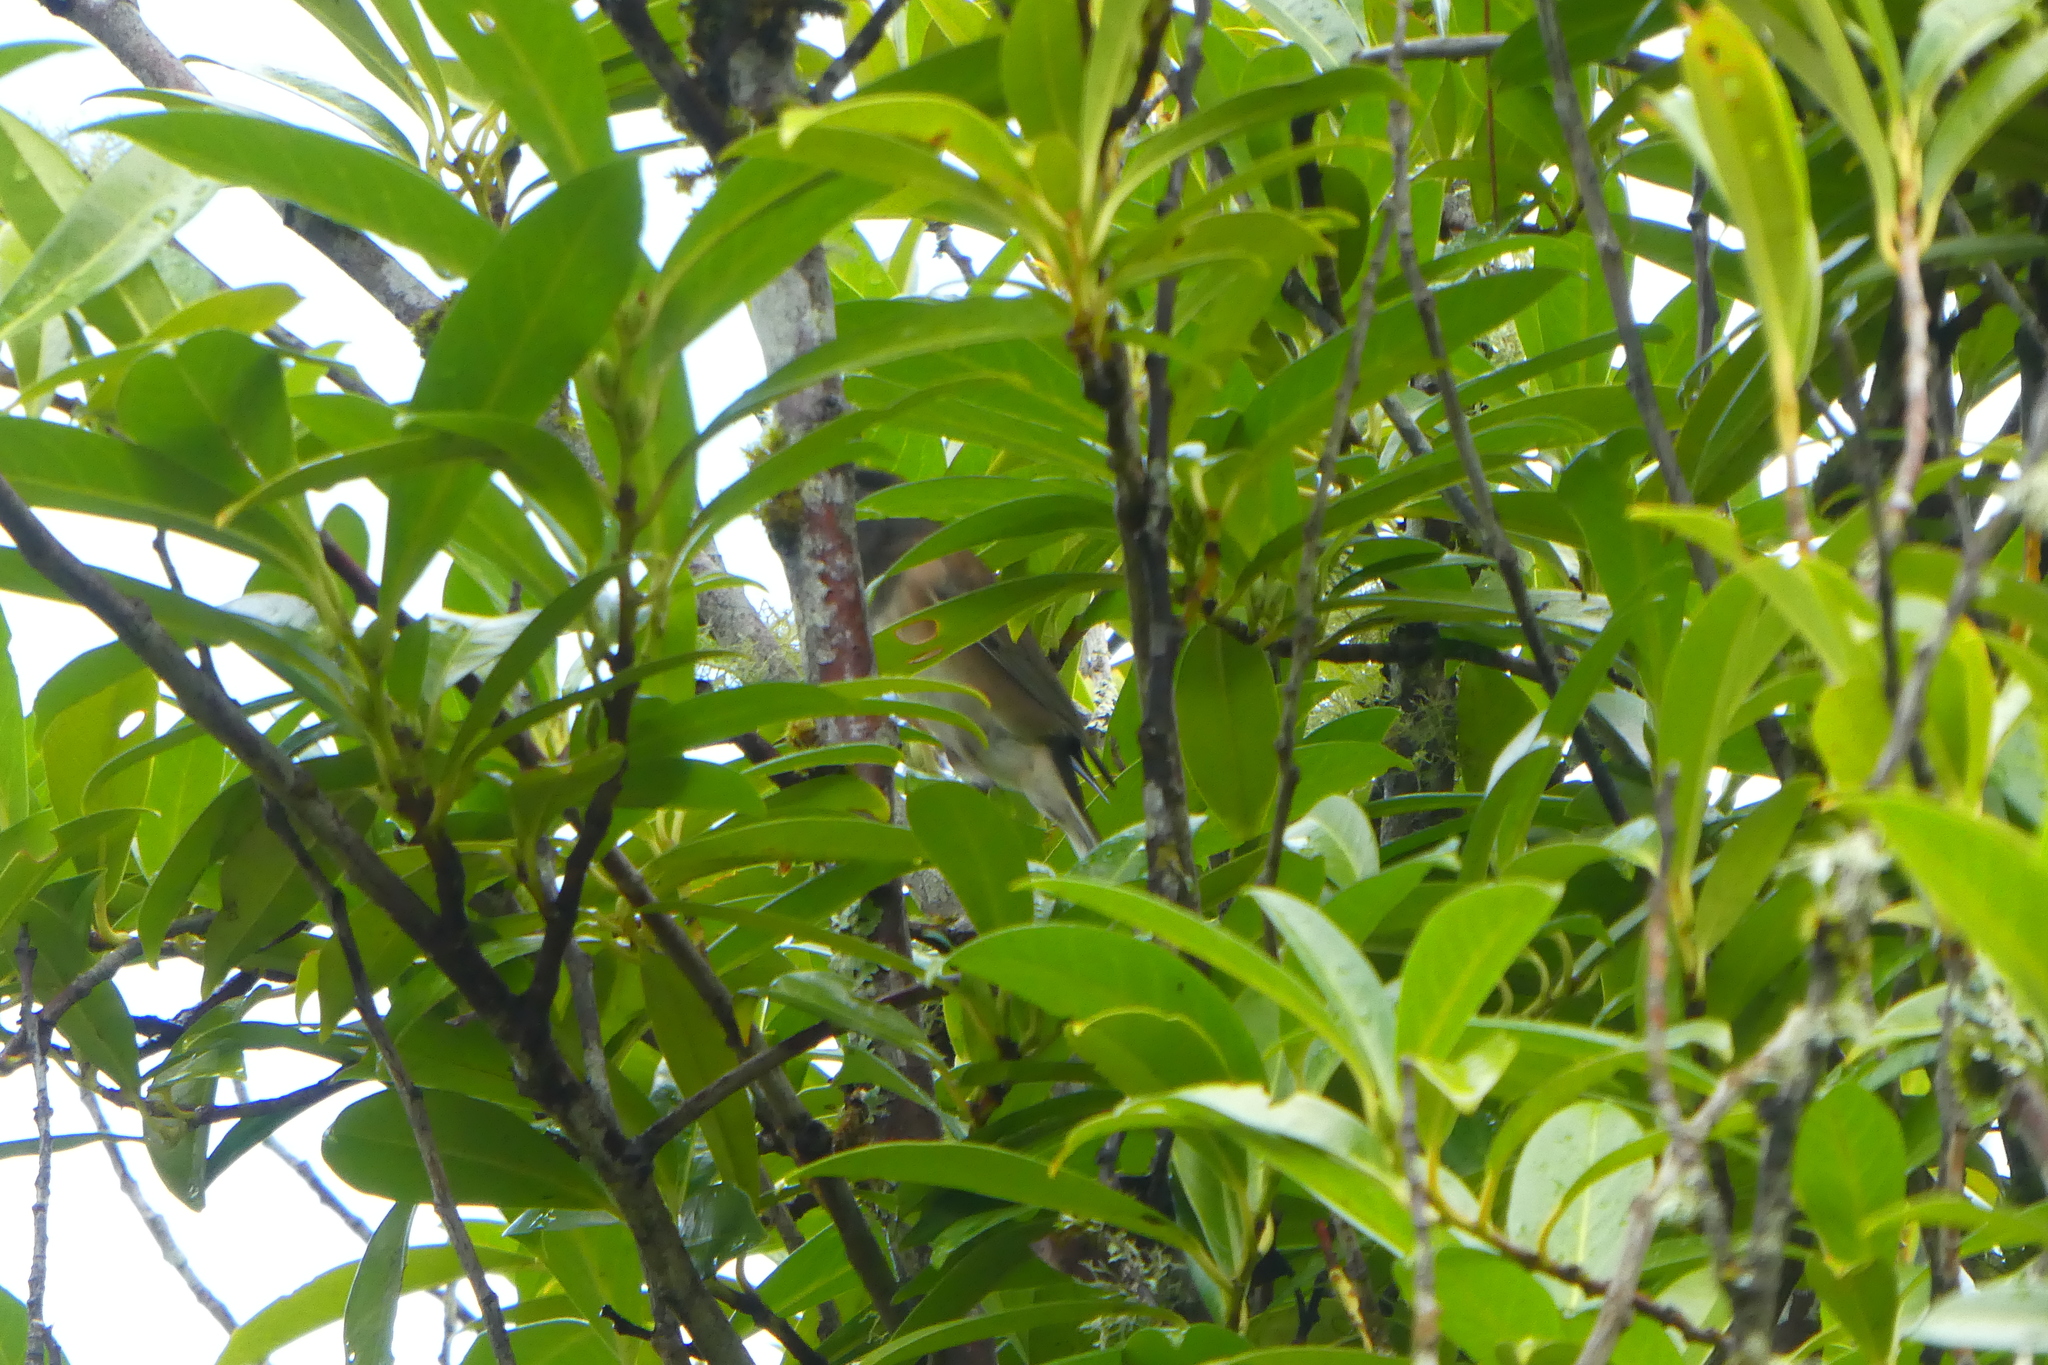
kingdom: Animalia
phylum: Chordata
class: Aves
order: Passeriformes
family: Passerellidae
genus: Junco
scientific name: Junco hyemalis
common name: Dark-eyed junco
